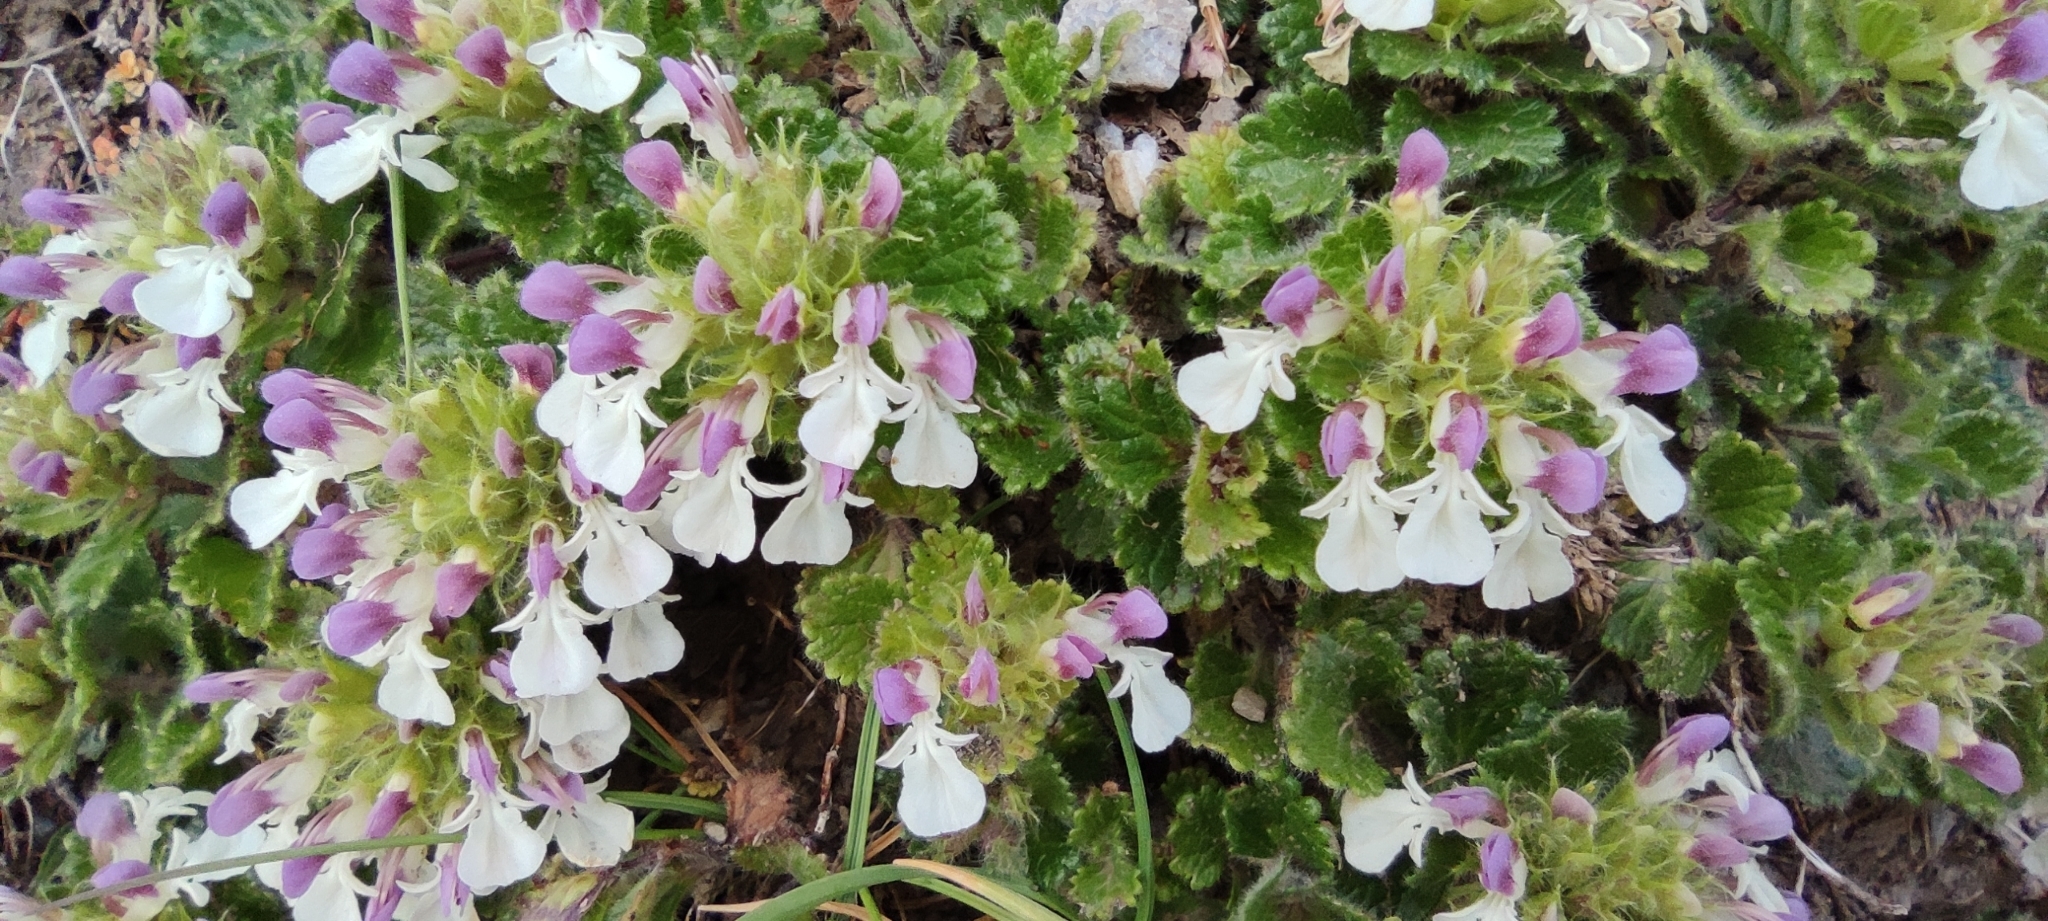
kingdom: Plantae
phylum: Tracheophyta
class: Magnoliopsida
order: Lamiales
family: Lamiaceae
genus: Teucrium
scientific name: Teucrium pyrenaicum
